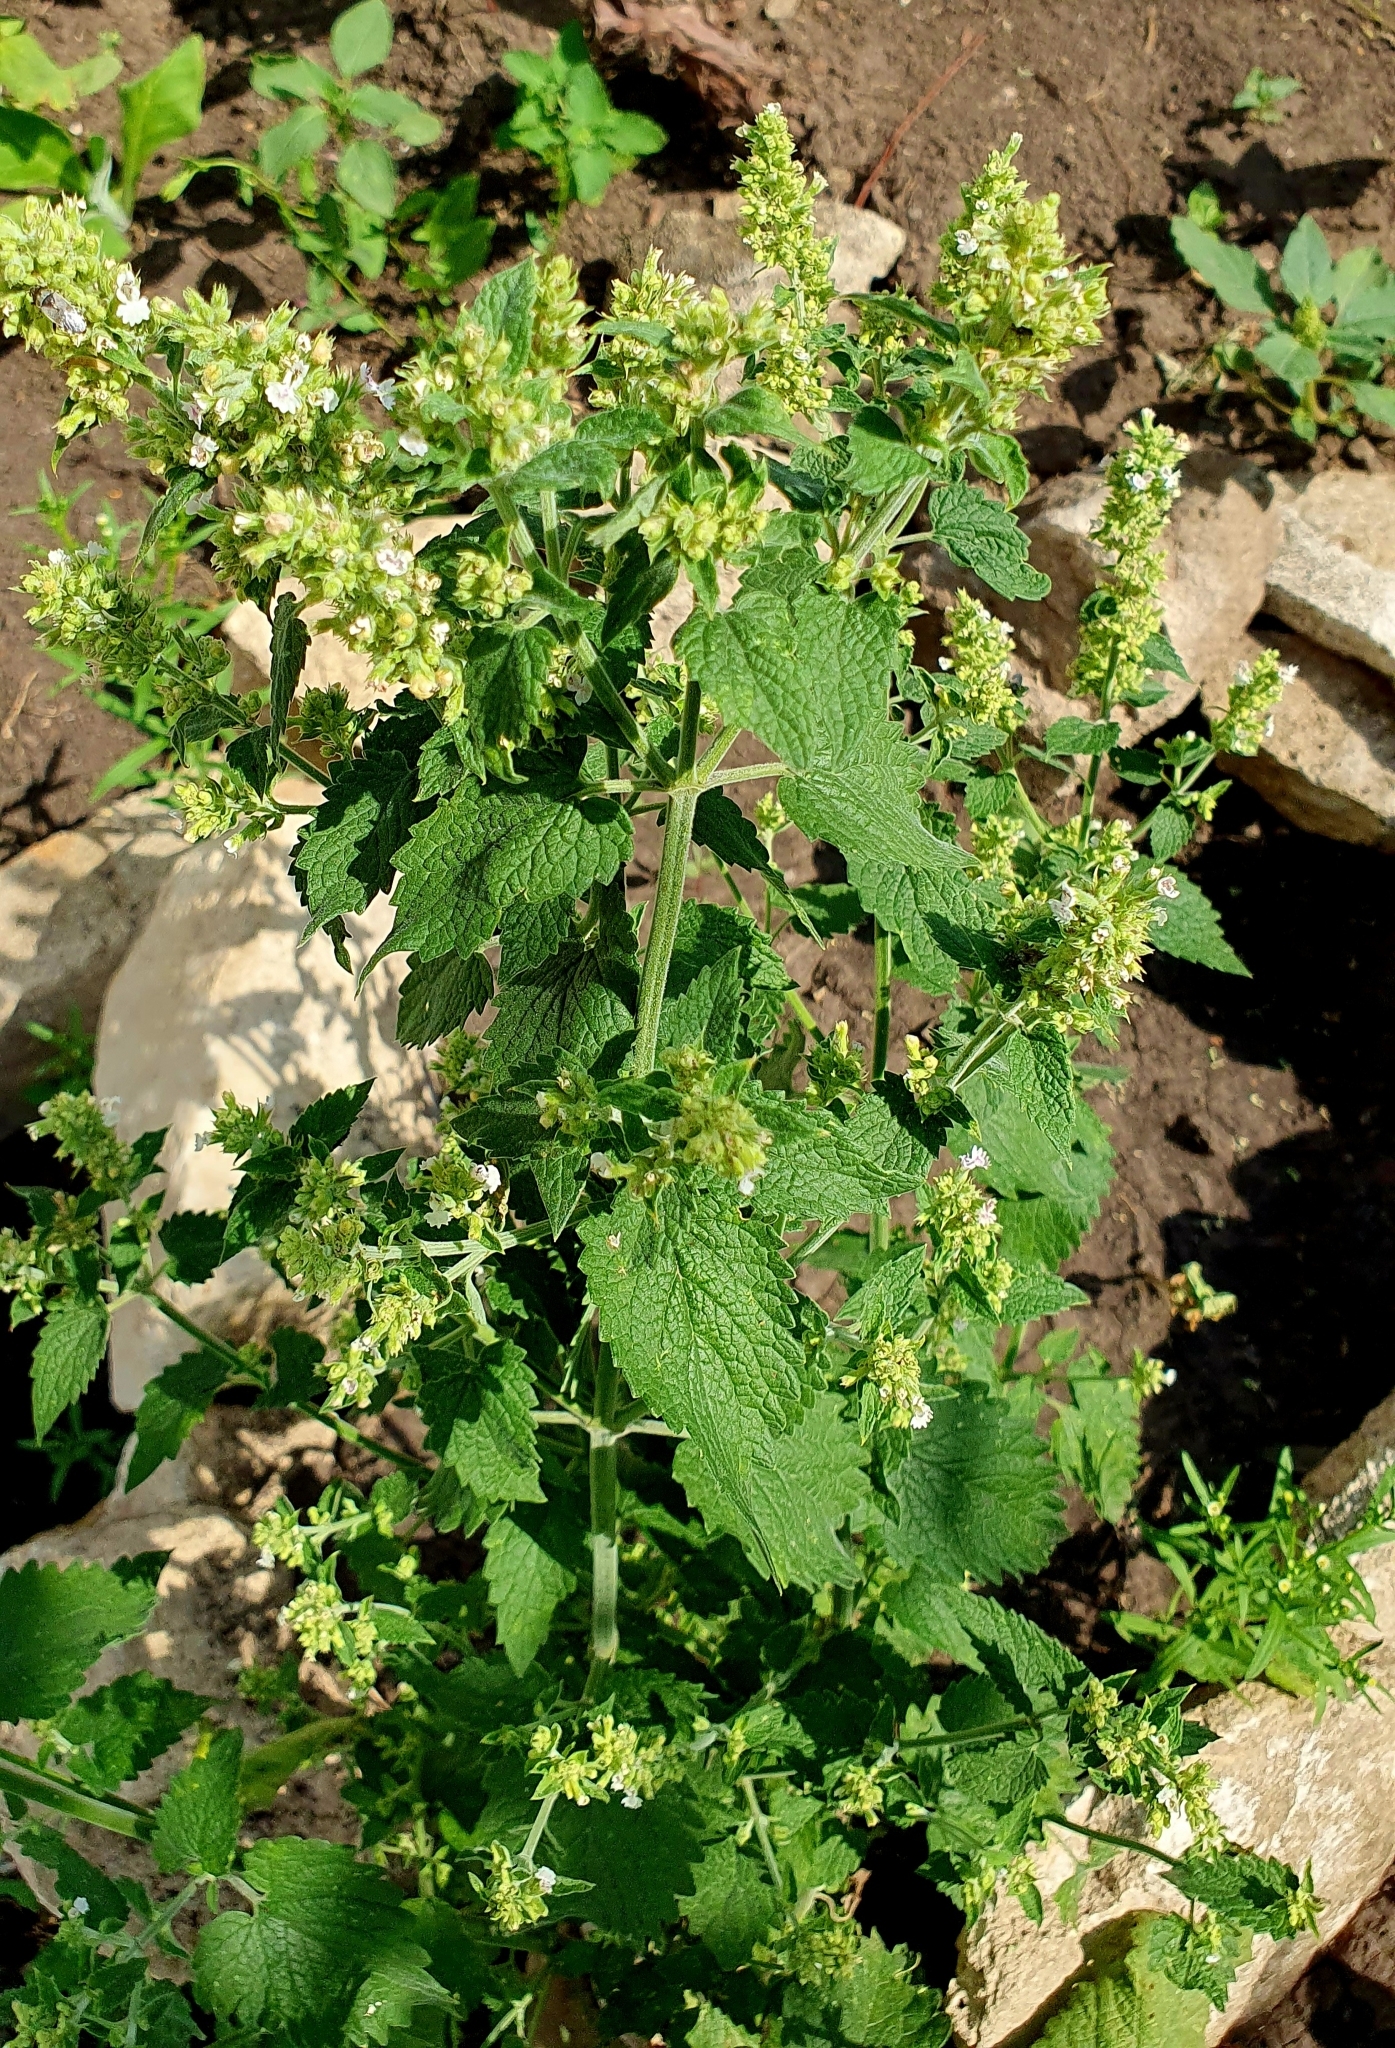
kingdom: Plantae
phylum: Tracheophyta
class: Magnoliopsida
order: Lamiales
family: Lamiaceae
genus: Nepeta
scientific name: Nepeta cataria
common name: Catnip
